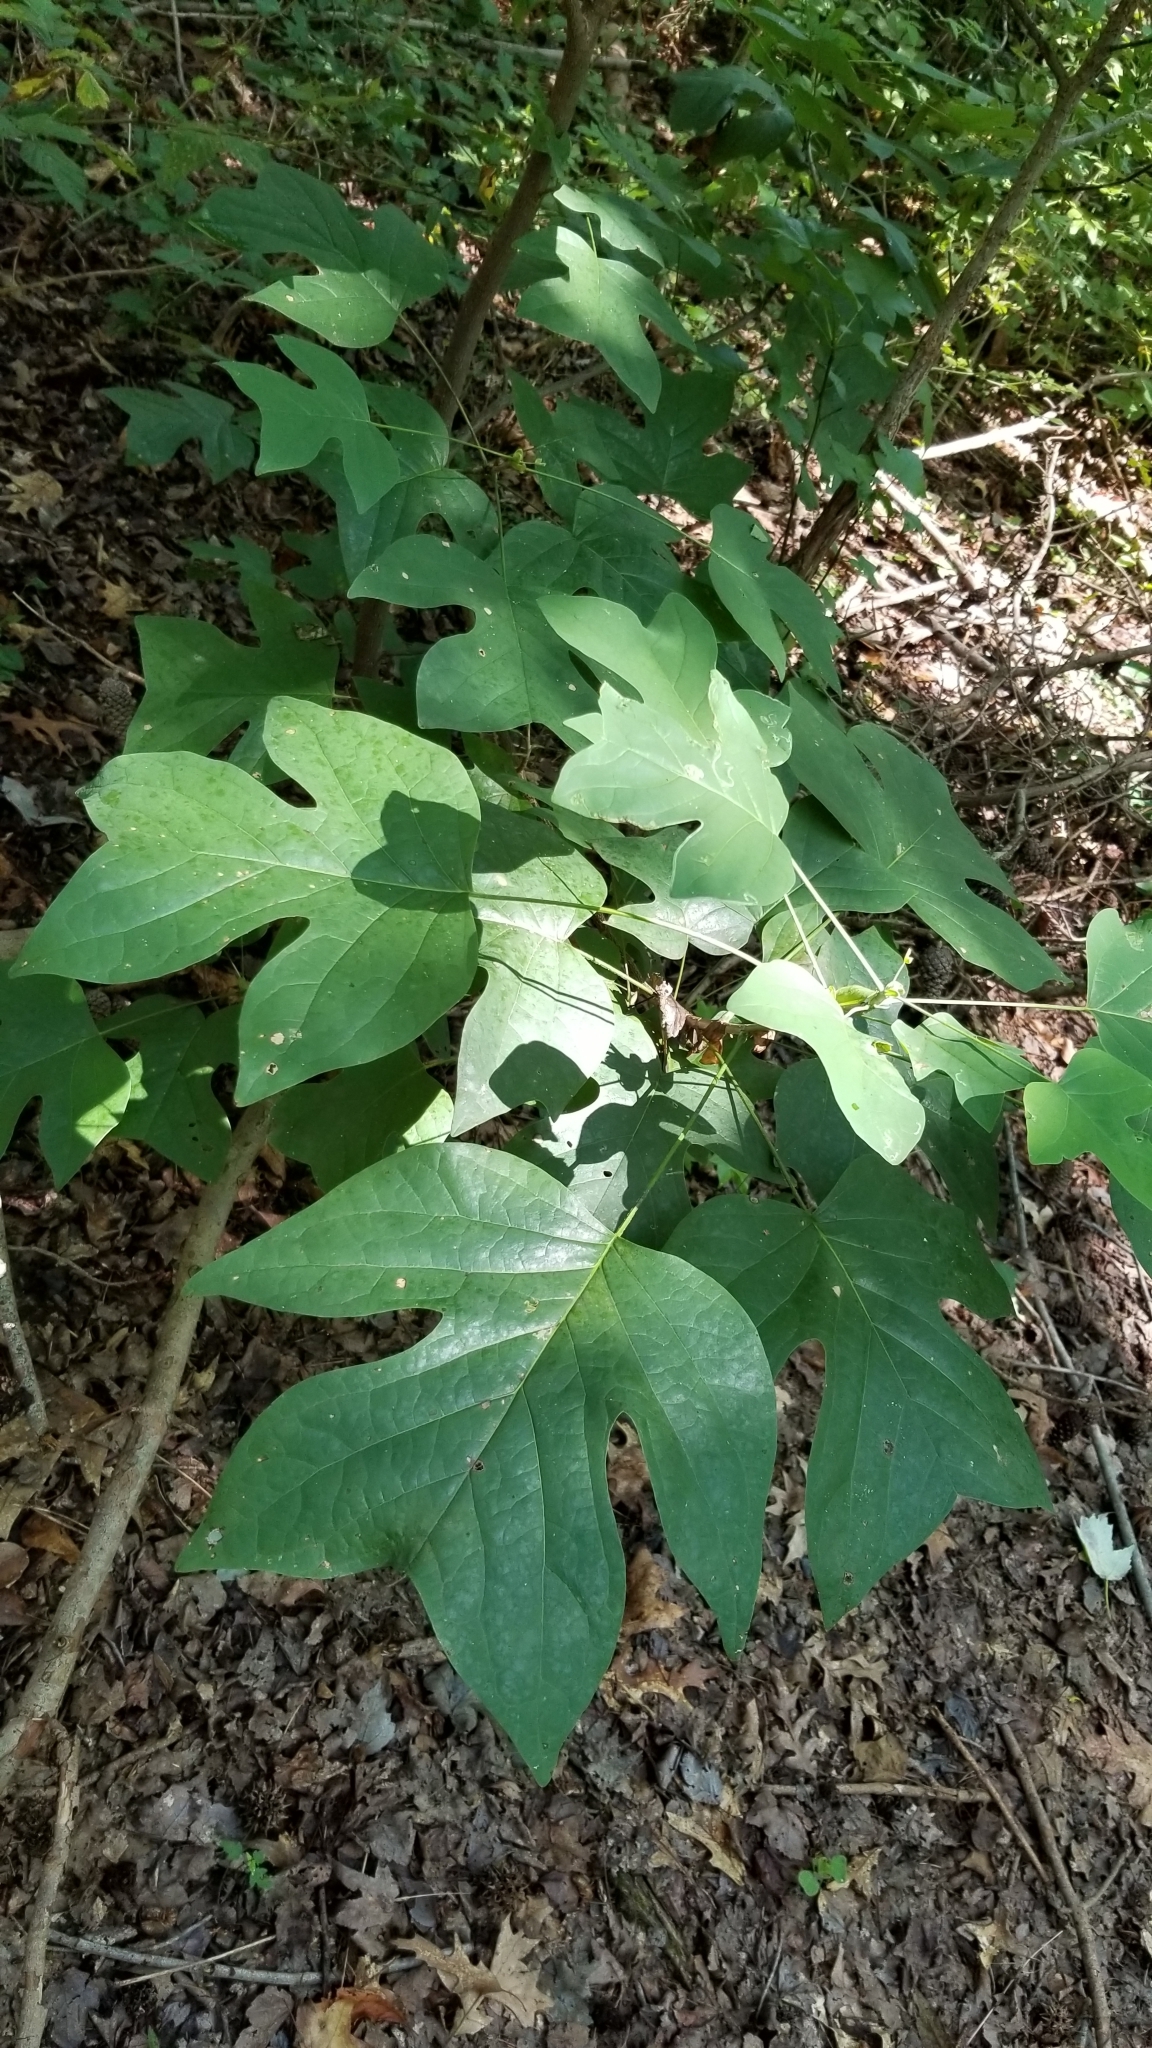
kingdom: Plantae
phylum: Tracheophyta
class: Magnoliopsida
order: Magnoliales
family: Magnoliaceae
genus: Liriodendron
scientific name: Liriodendron tulipifera
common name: Tulip tree
